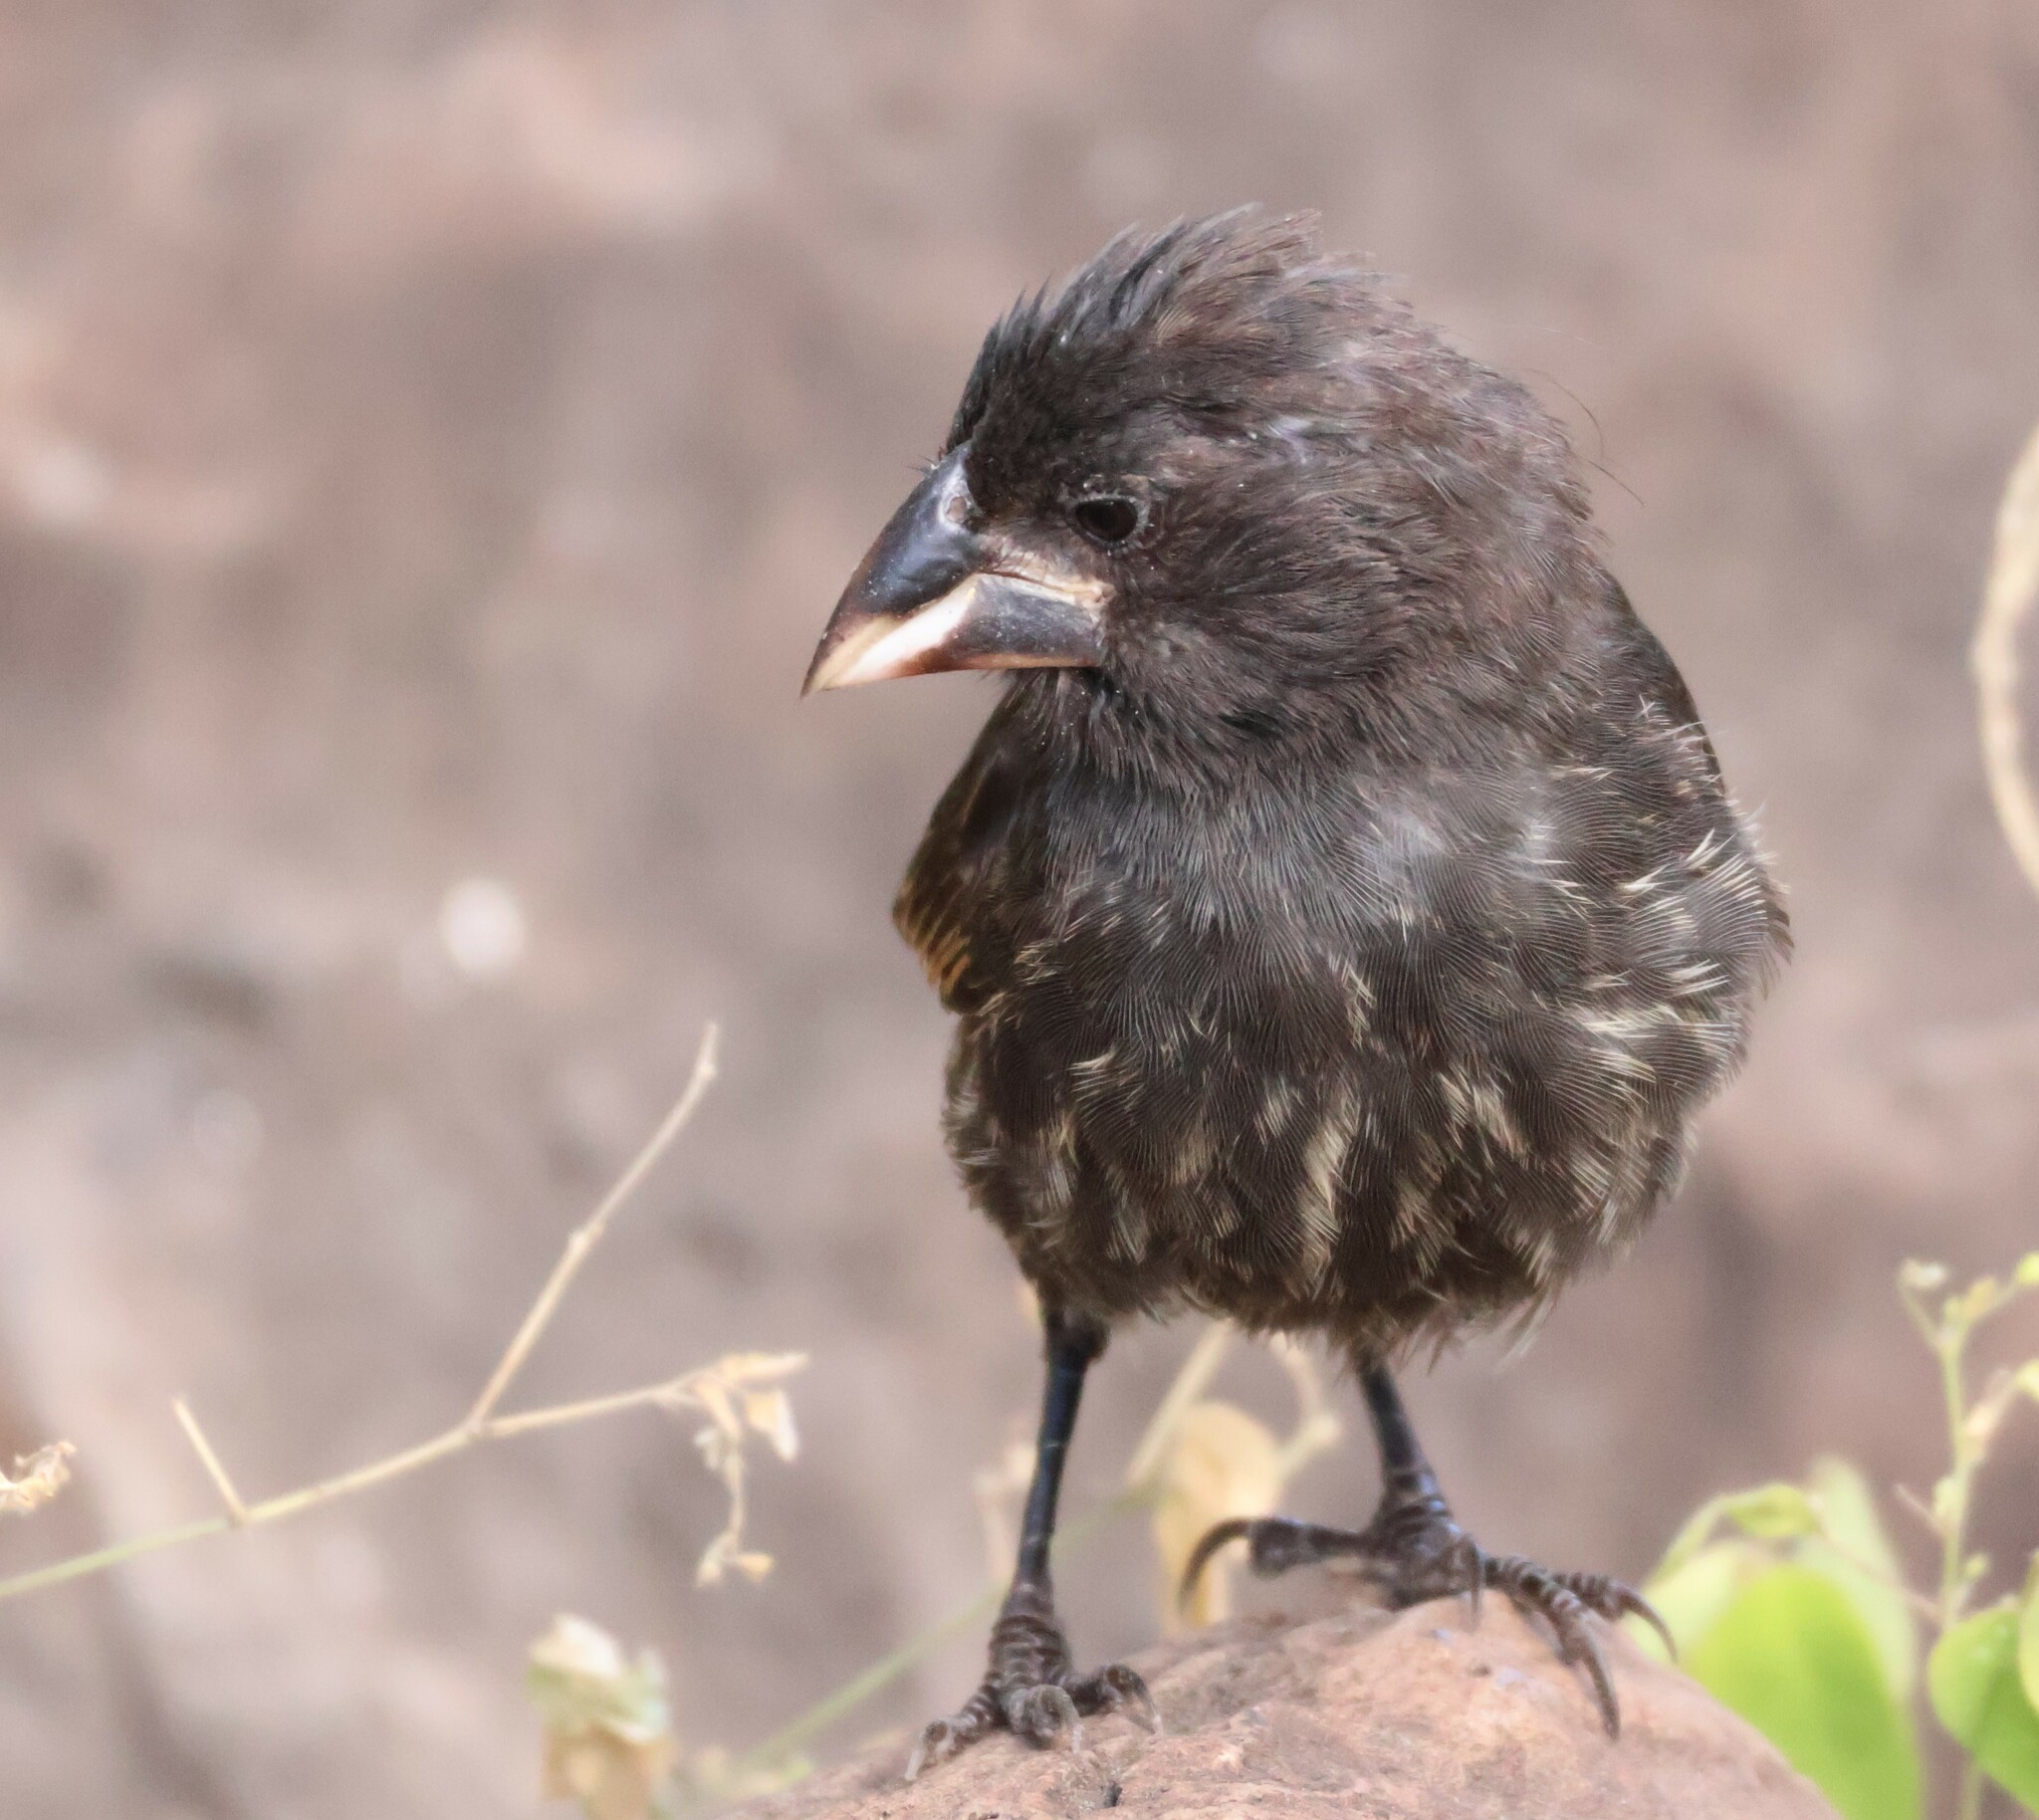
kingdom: Animalia
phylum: Chordata
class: Aves
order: Passeriformes
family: Thraupidae
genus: Geospiza
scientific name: Geospiza conirostris
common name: Large cactus finch
